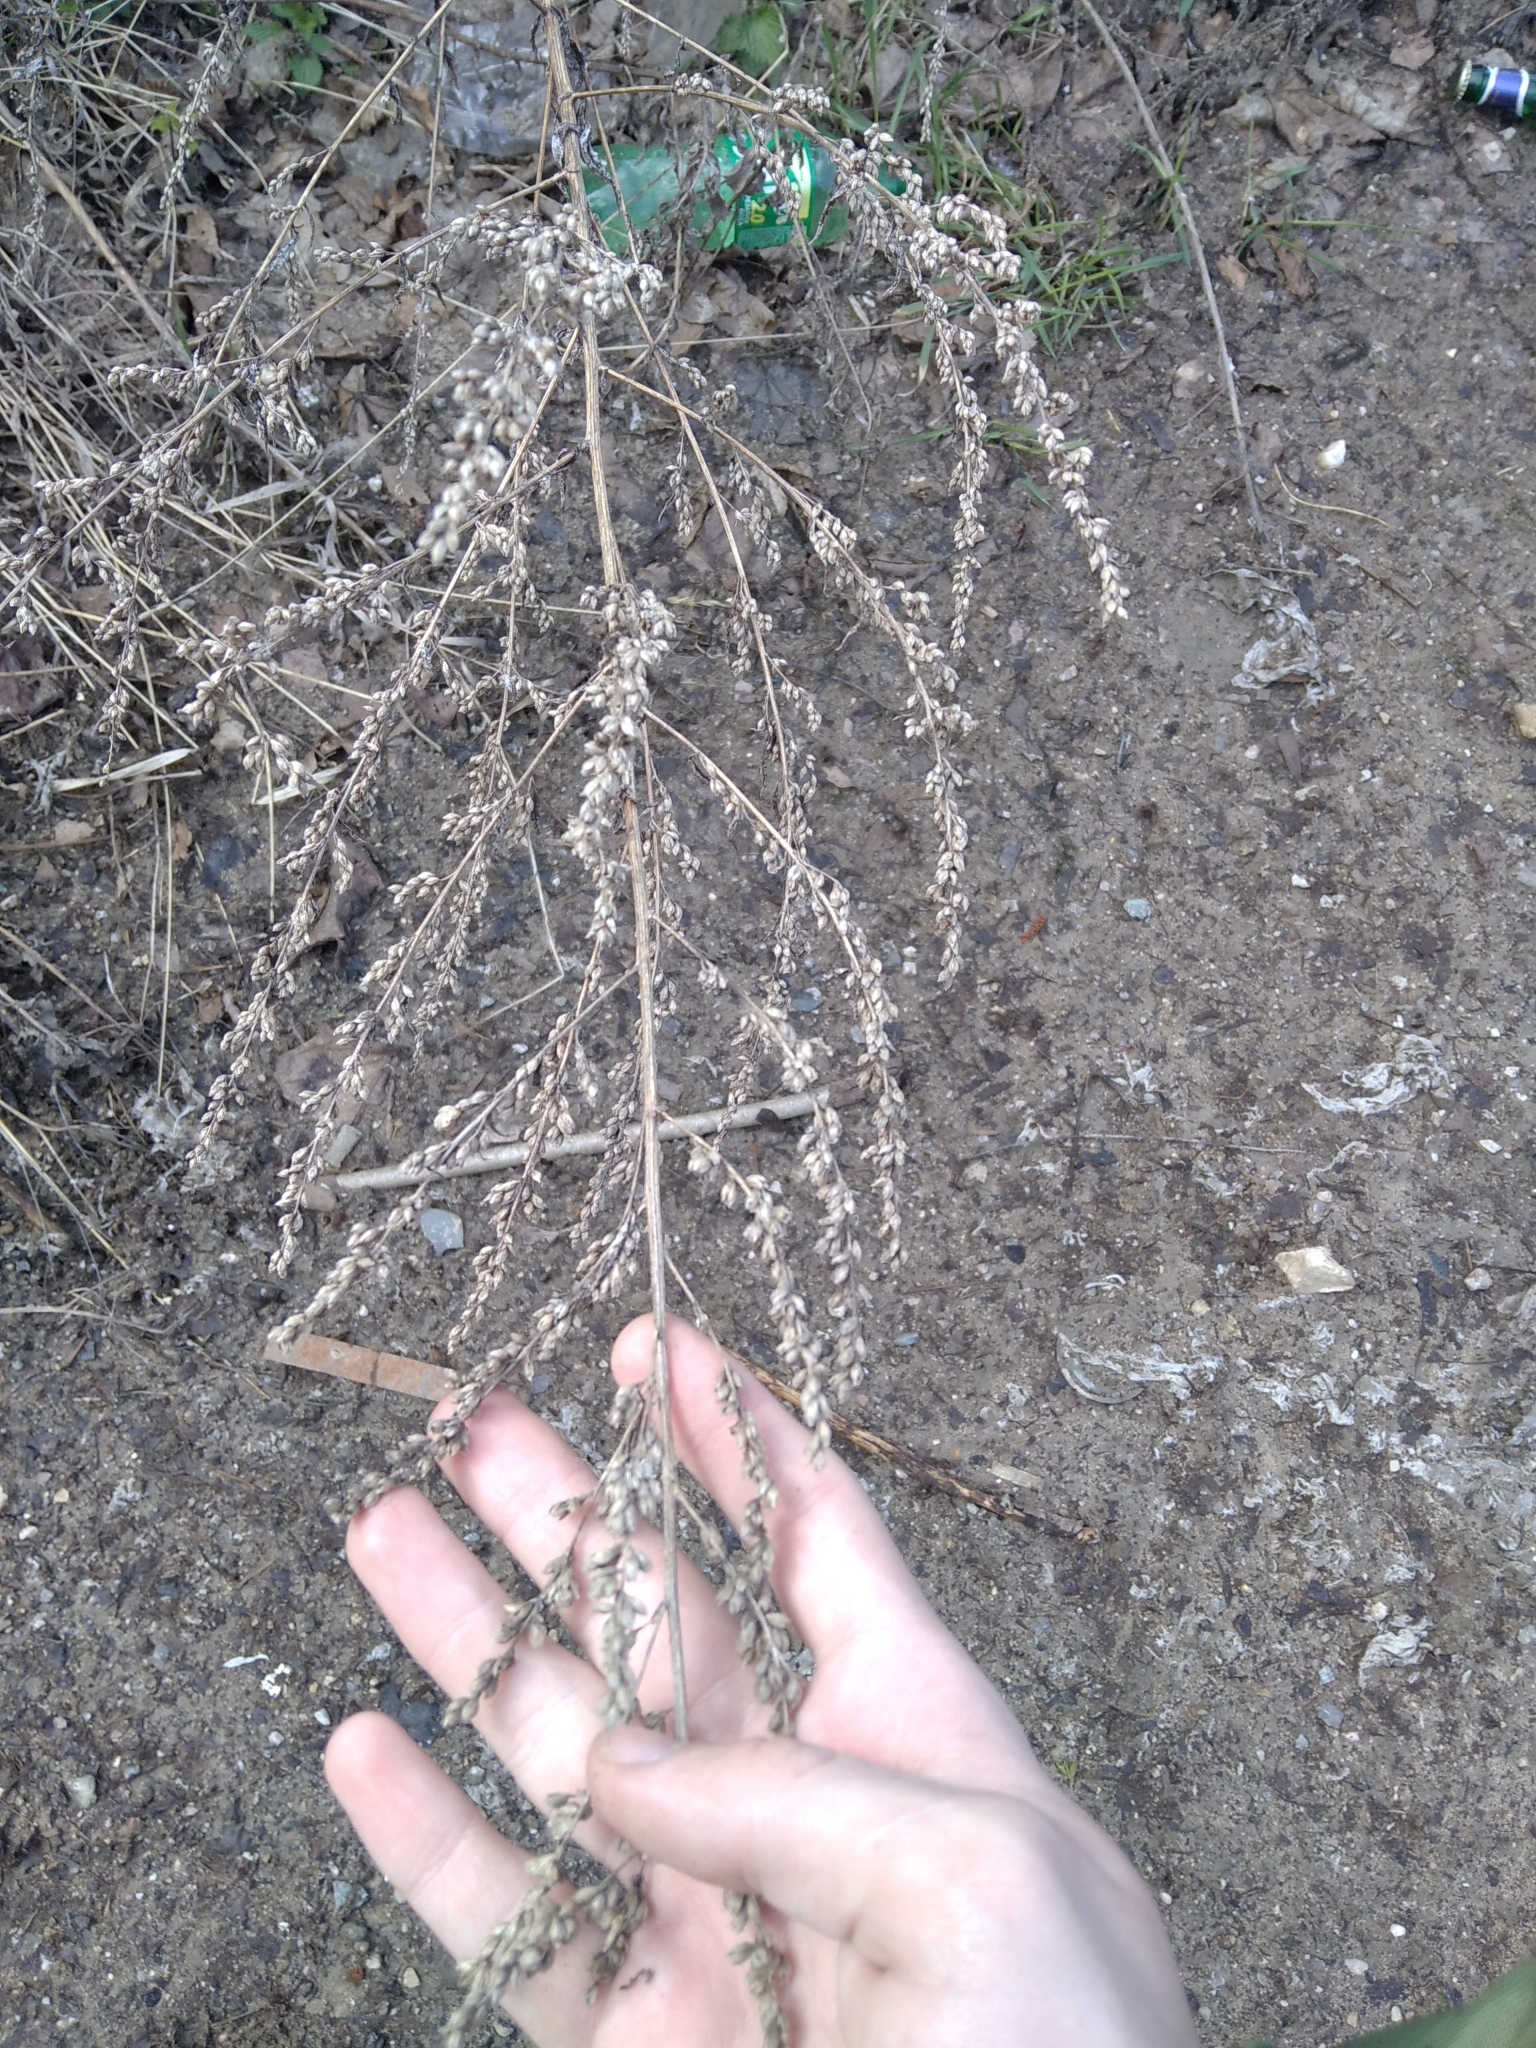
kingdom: Plantae
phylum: Tracheophyta
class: Magnoliopsida
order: Asterales
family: Asteraceae
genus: Artemisia
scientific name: Artemisia vulgaris
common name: Mugwort
